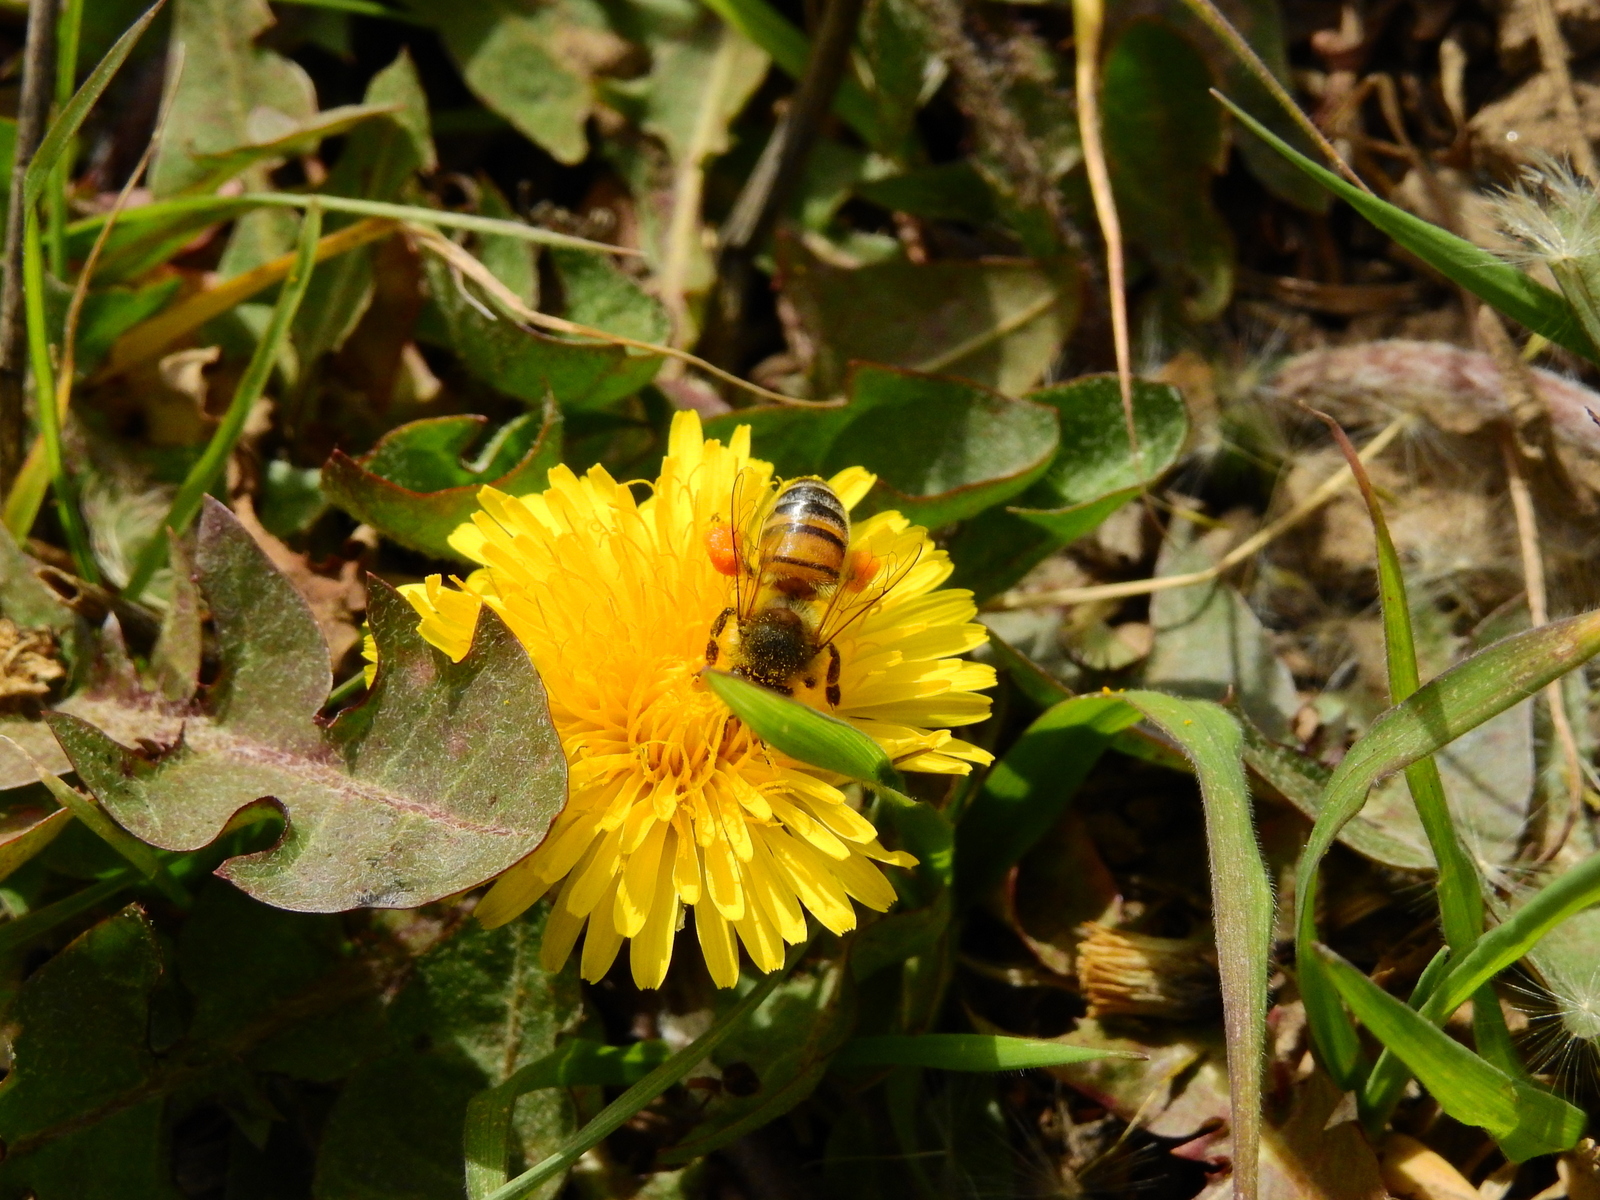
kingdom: Animalia
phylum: Arthropoda
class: Insecta
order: Hymenoptera
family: Apidae
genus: Apis
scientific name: Apis mellifera
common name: Honey bee
